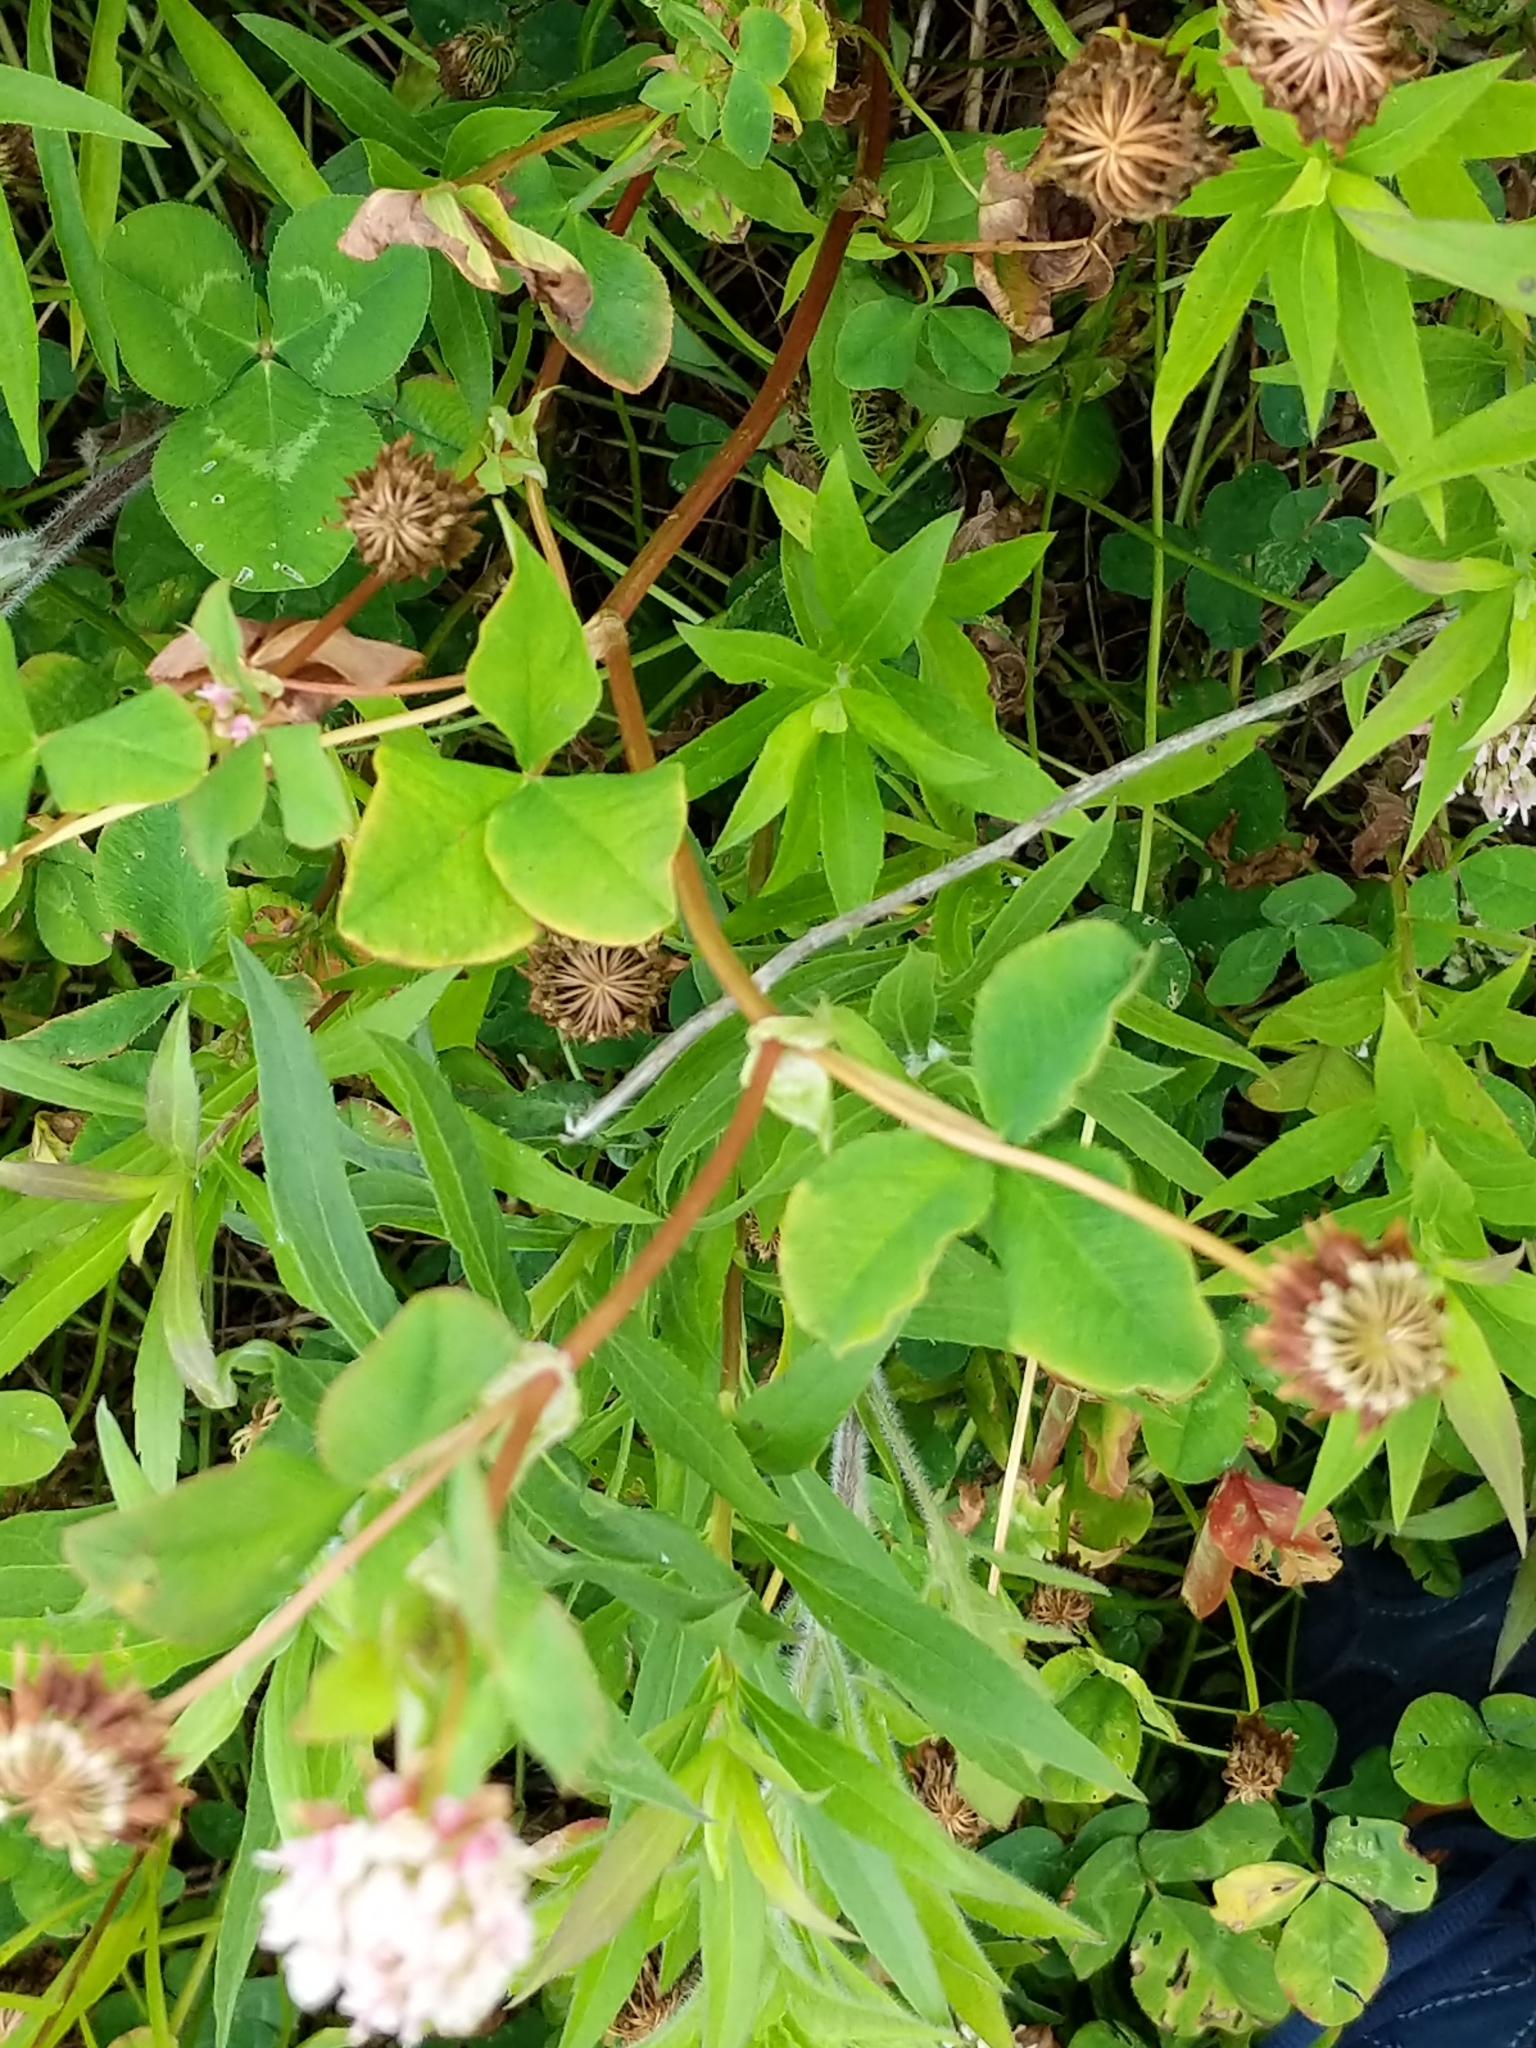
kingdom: Plantae
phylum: Tracheophyta
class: Magnoliopsida
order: Fabales
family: Fabaceae
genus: Trifolium
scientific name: Trifolium hybridum
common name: Alsike clover
